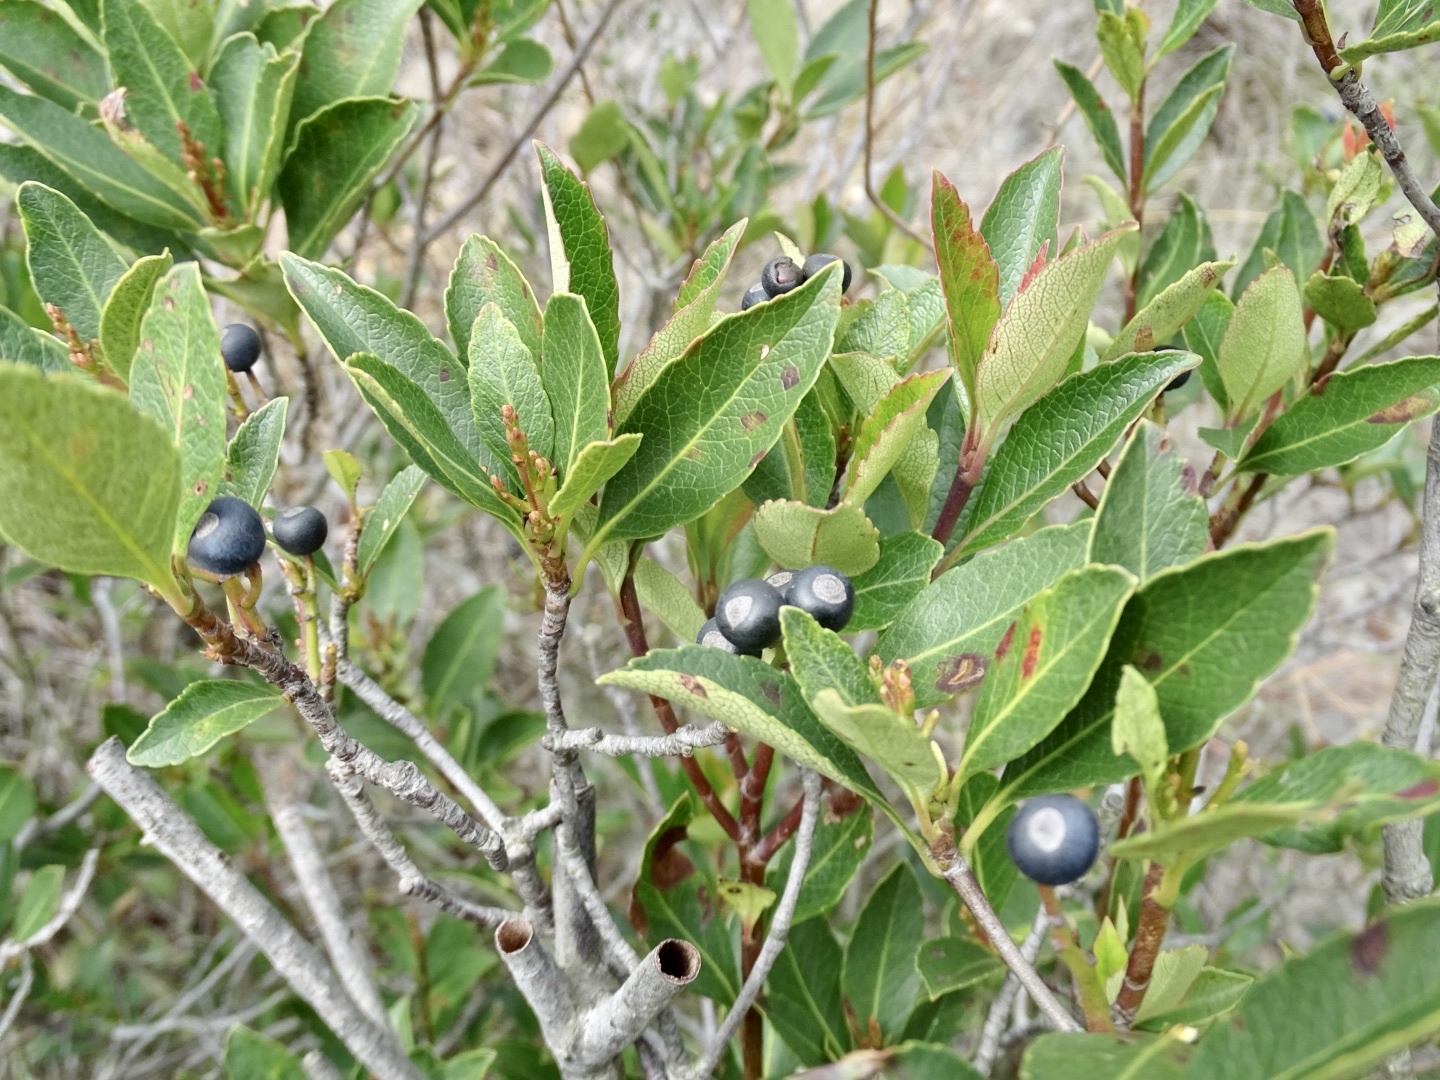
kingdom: Plantae
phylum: Tracheophyta
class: Magnoliopsida
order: Rosales
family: Rosaceae
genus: Rhaphiolepis
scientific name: Rhaphiolepis indica
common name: India-hawthorn
